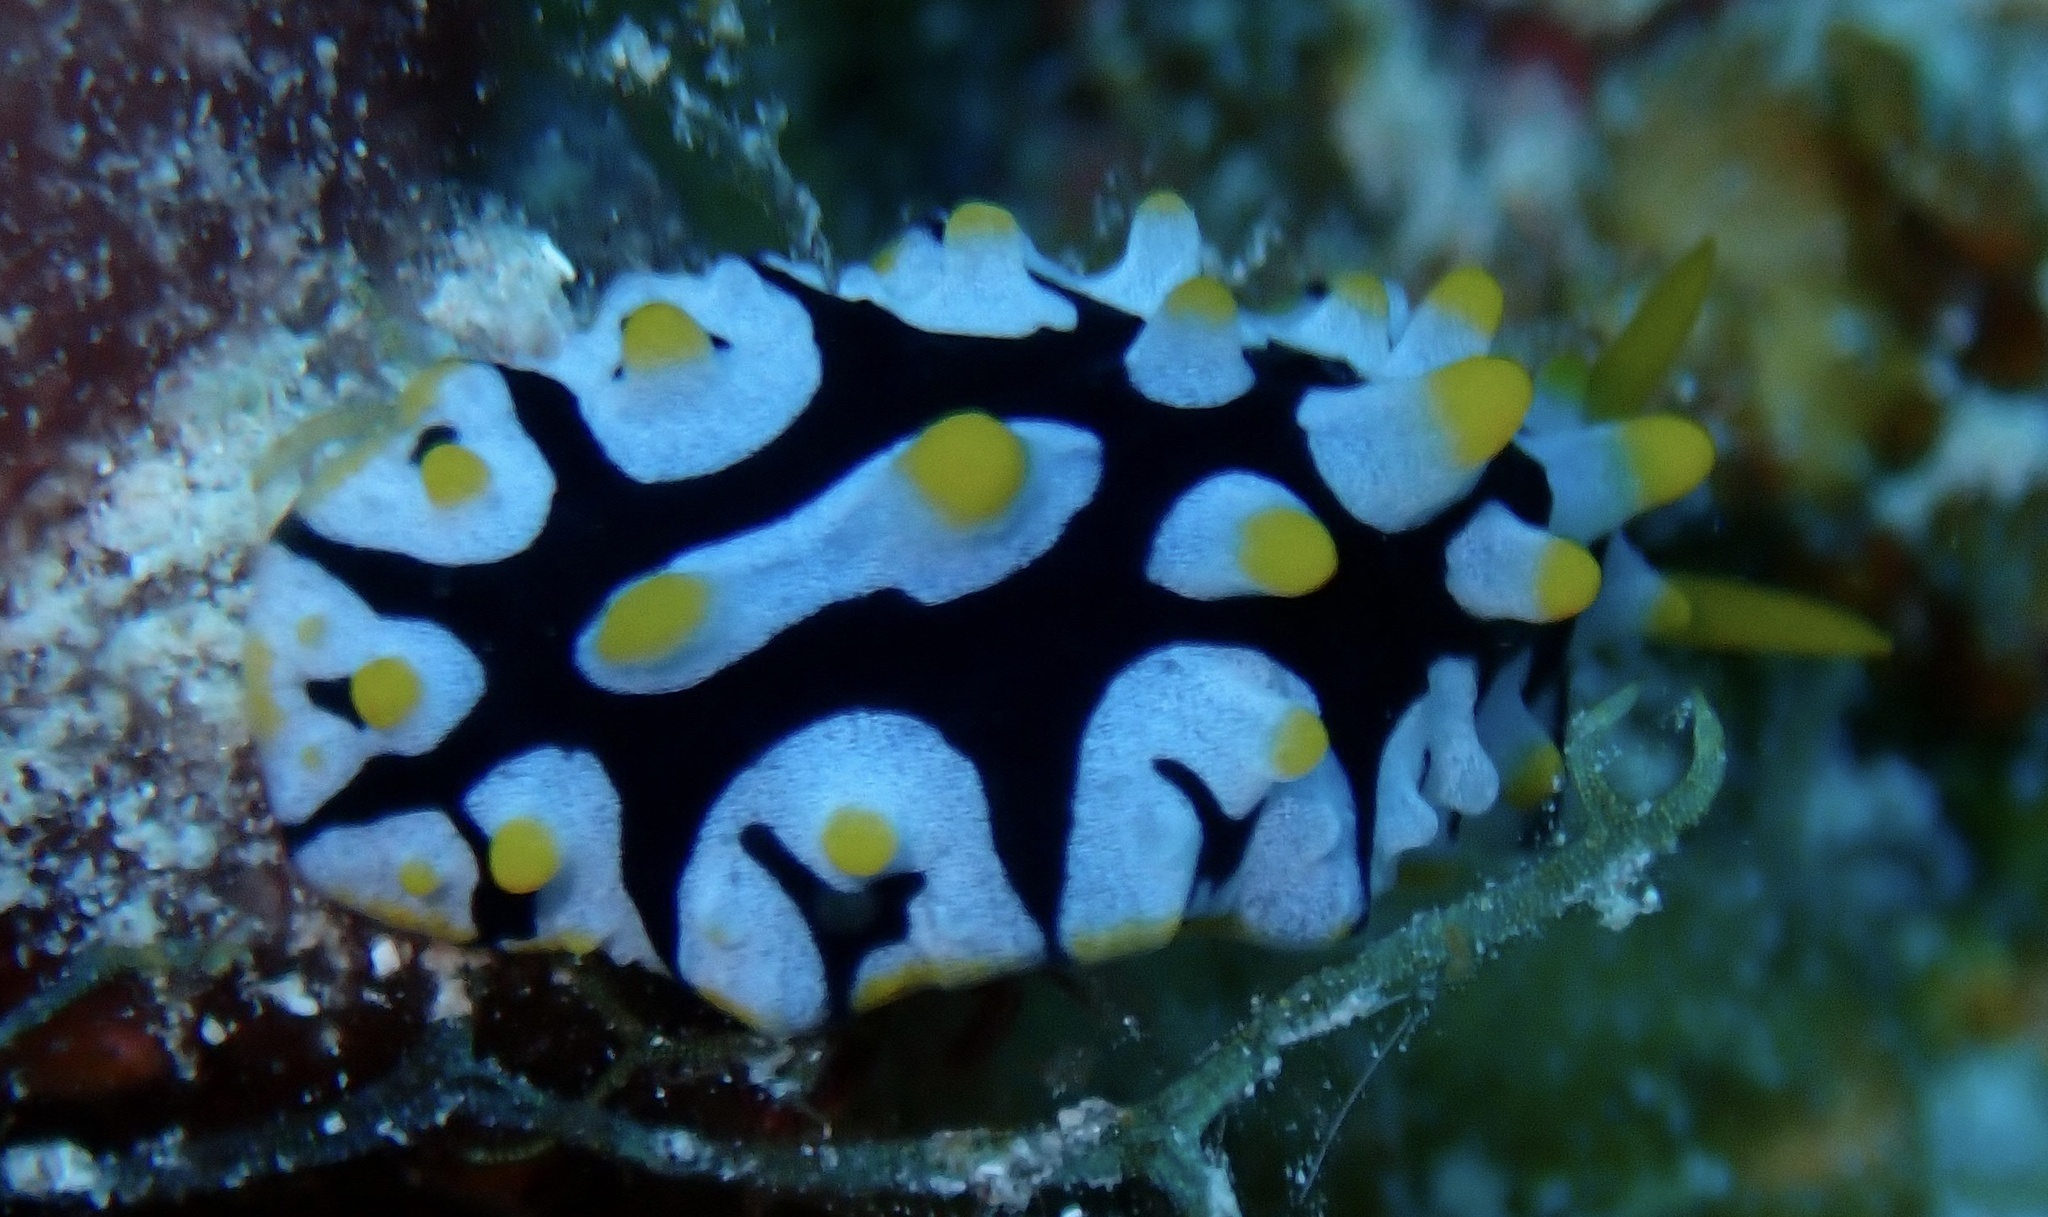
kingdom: Animalia
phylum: Mollusca
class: Gastropoda
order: Nudibranchia
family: Phyllidiidae
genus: Phyllidia
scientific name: Phyllidia rueppelii
